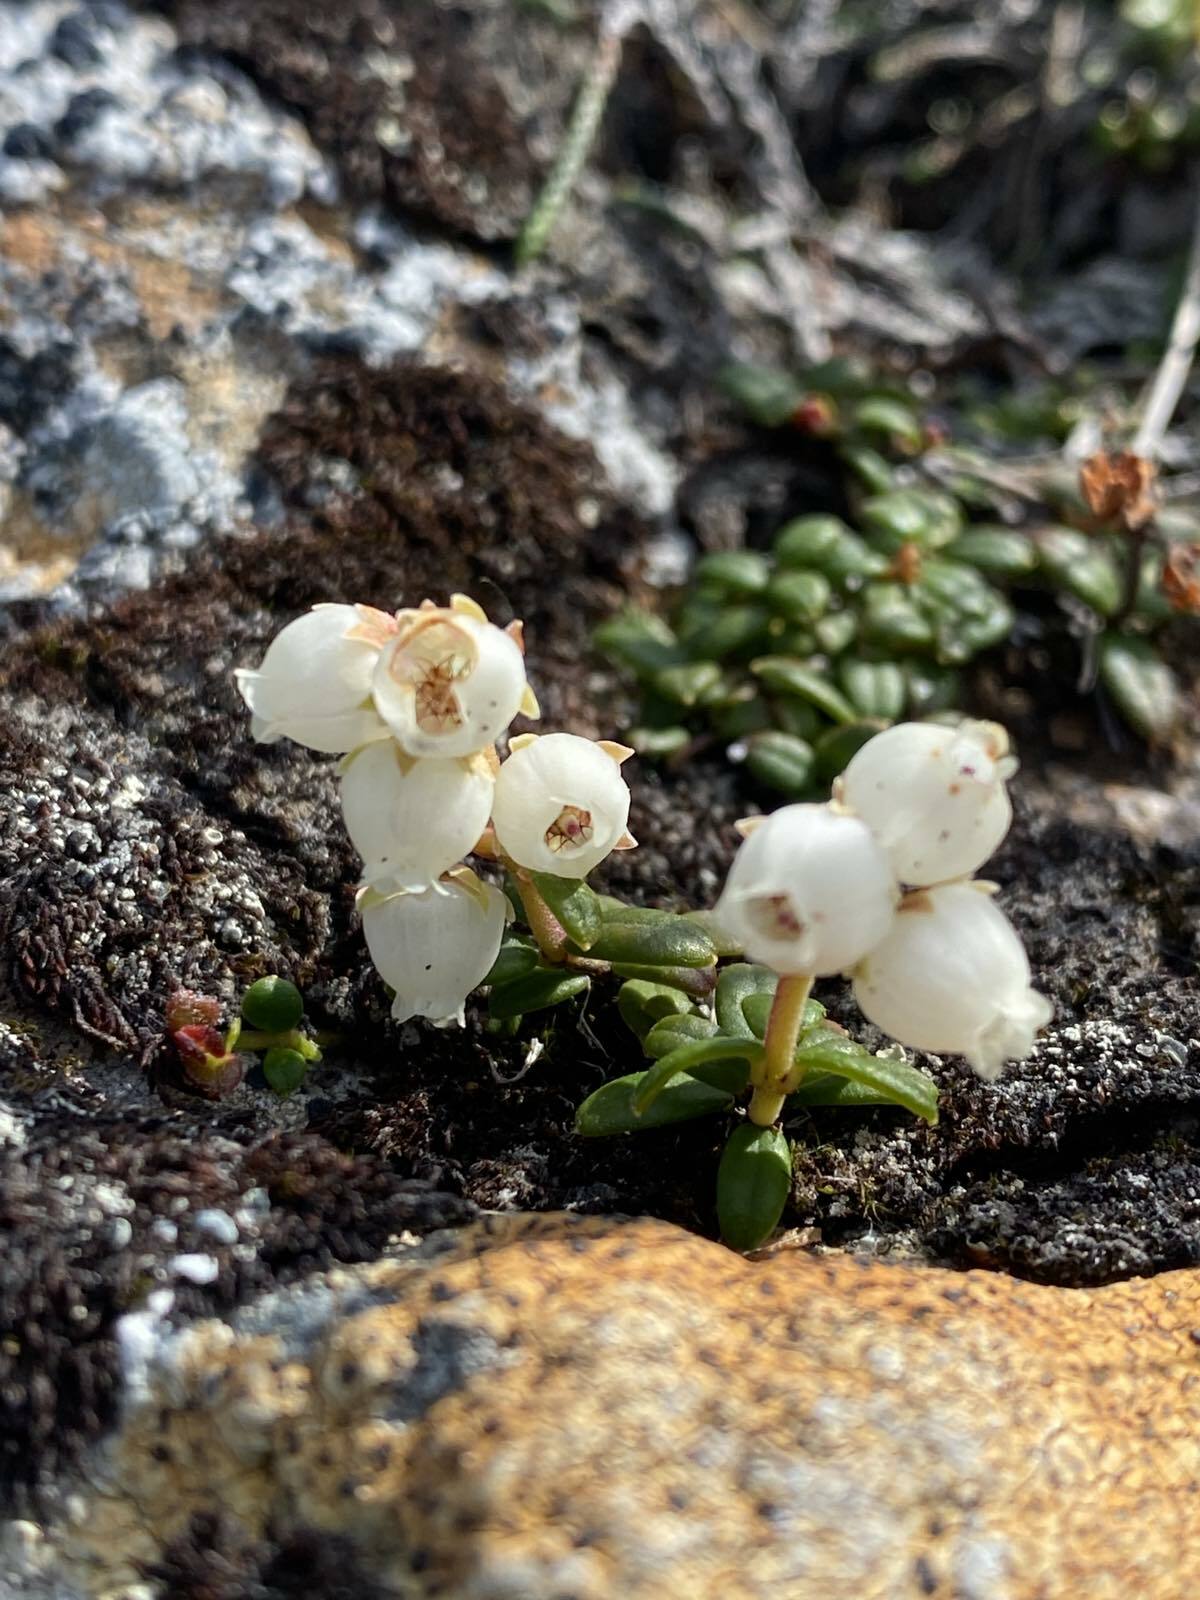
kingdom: Plantae
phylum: Tracheophyta
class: Magnoliopsida
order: Ericales
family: Ericaceae
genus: Pieris
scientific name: Pieris nana
